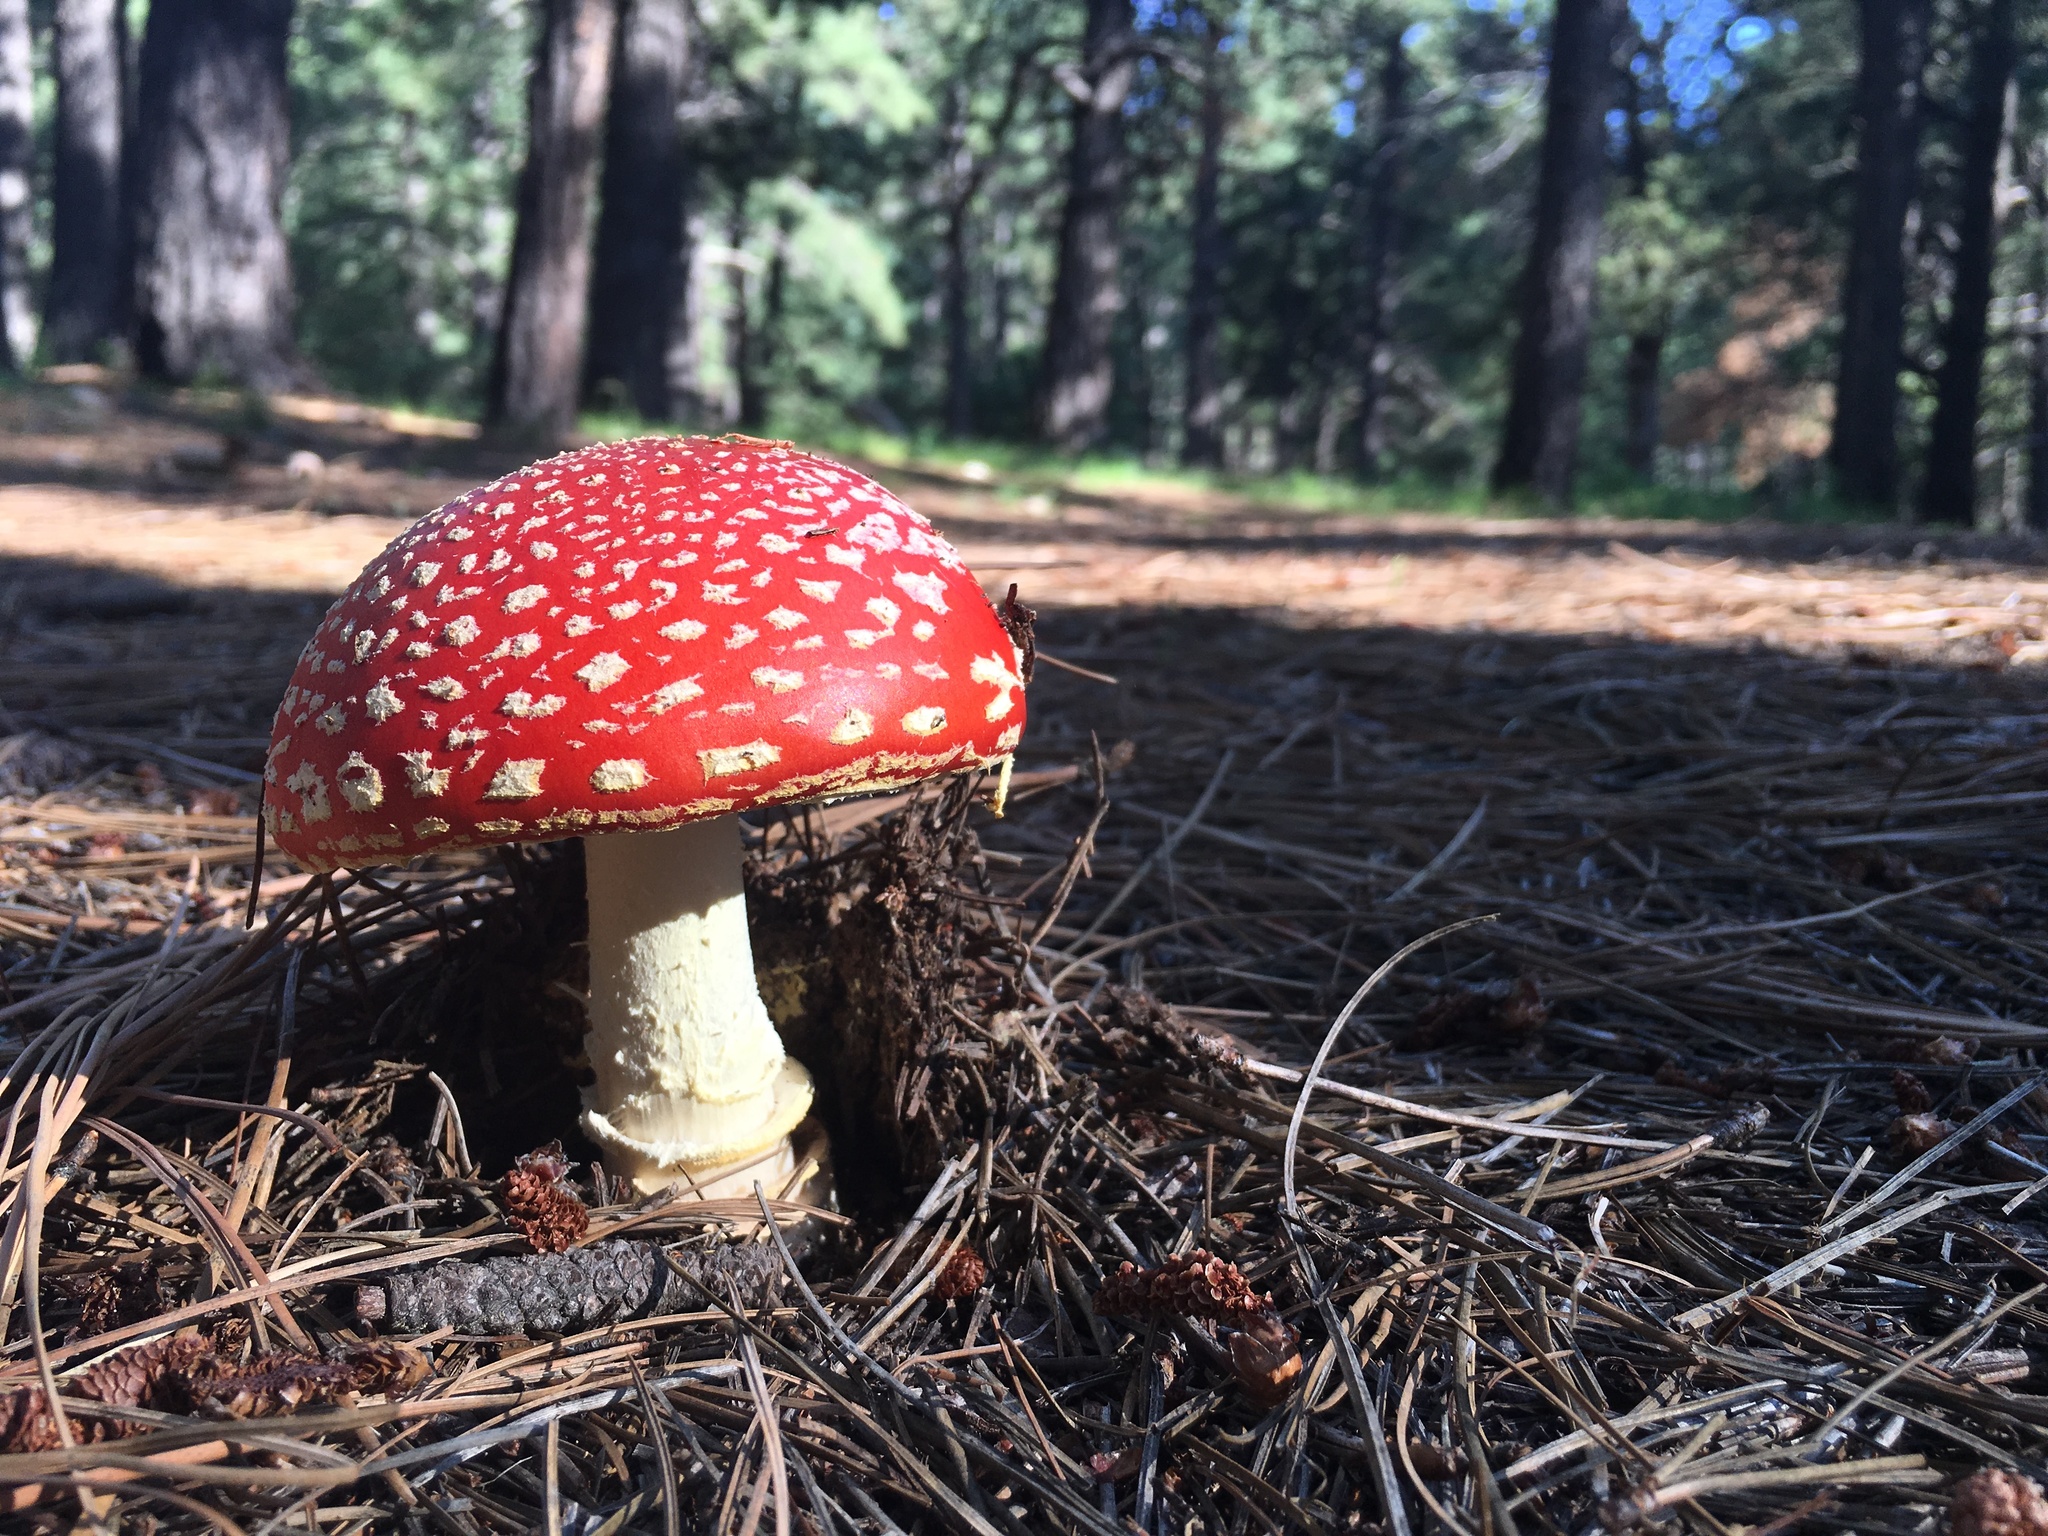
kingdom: Fungi
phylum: Basidiomycota
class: Agaricomycetes
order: Agaricales
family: Amanitaceae
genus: Amanita
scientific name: Amanita muscaria
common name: Fly agaric
